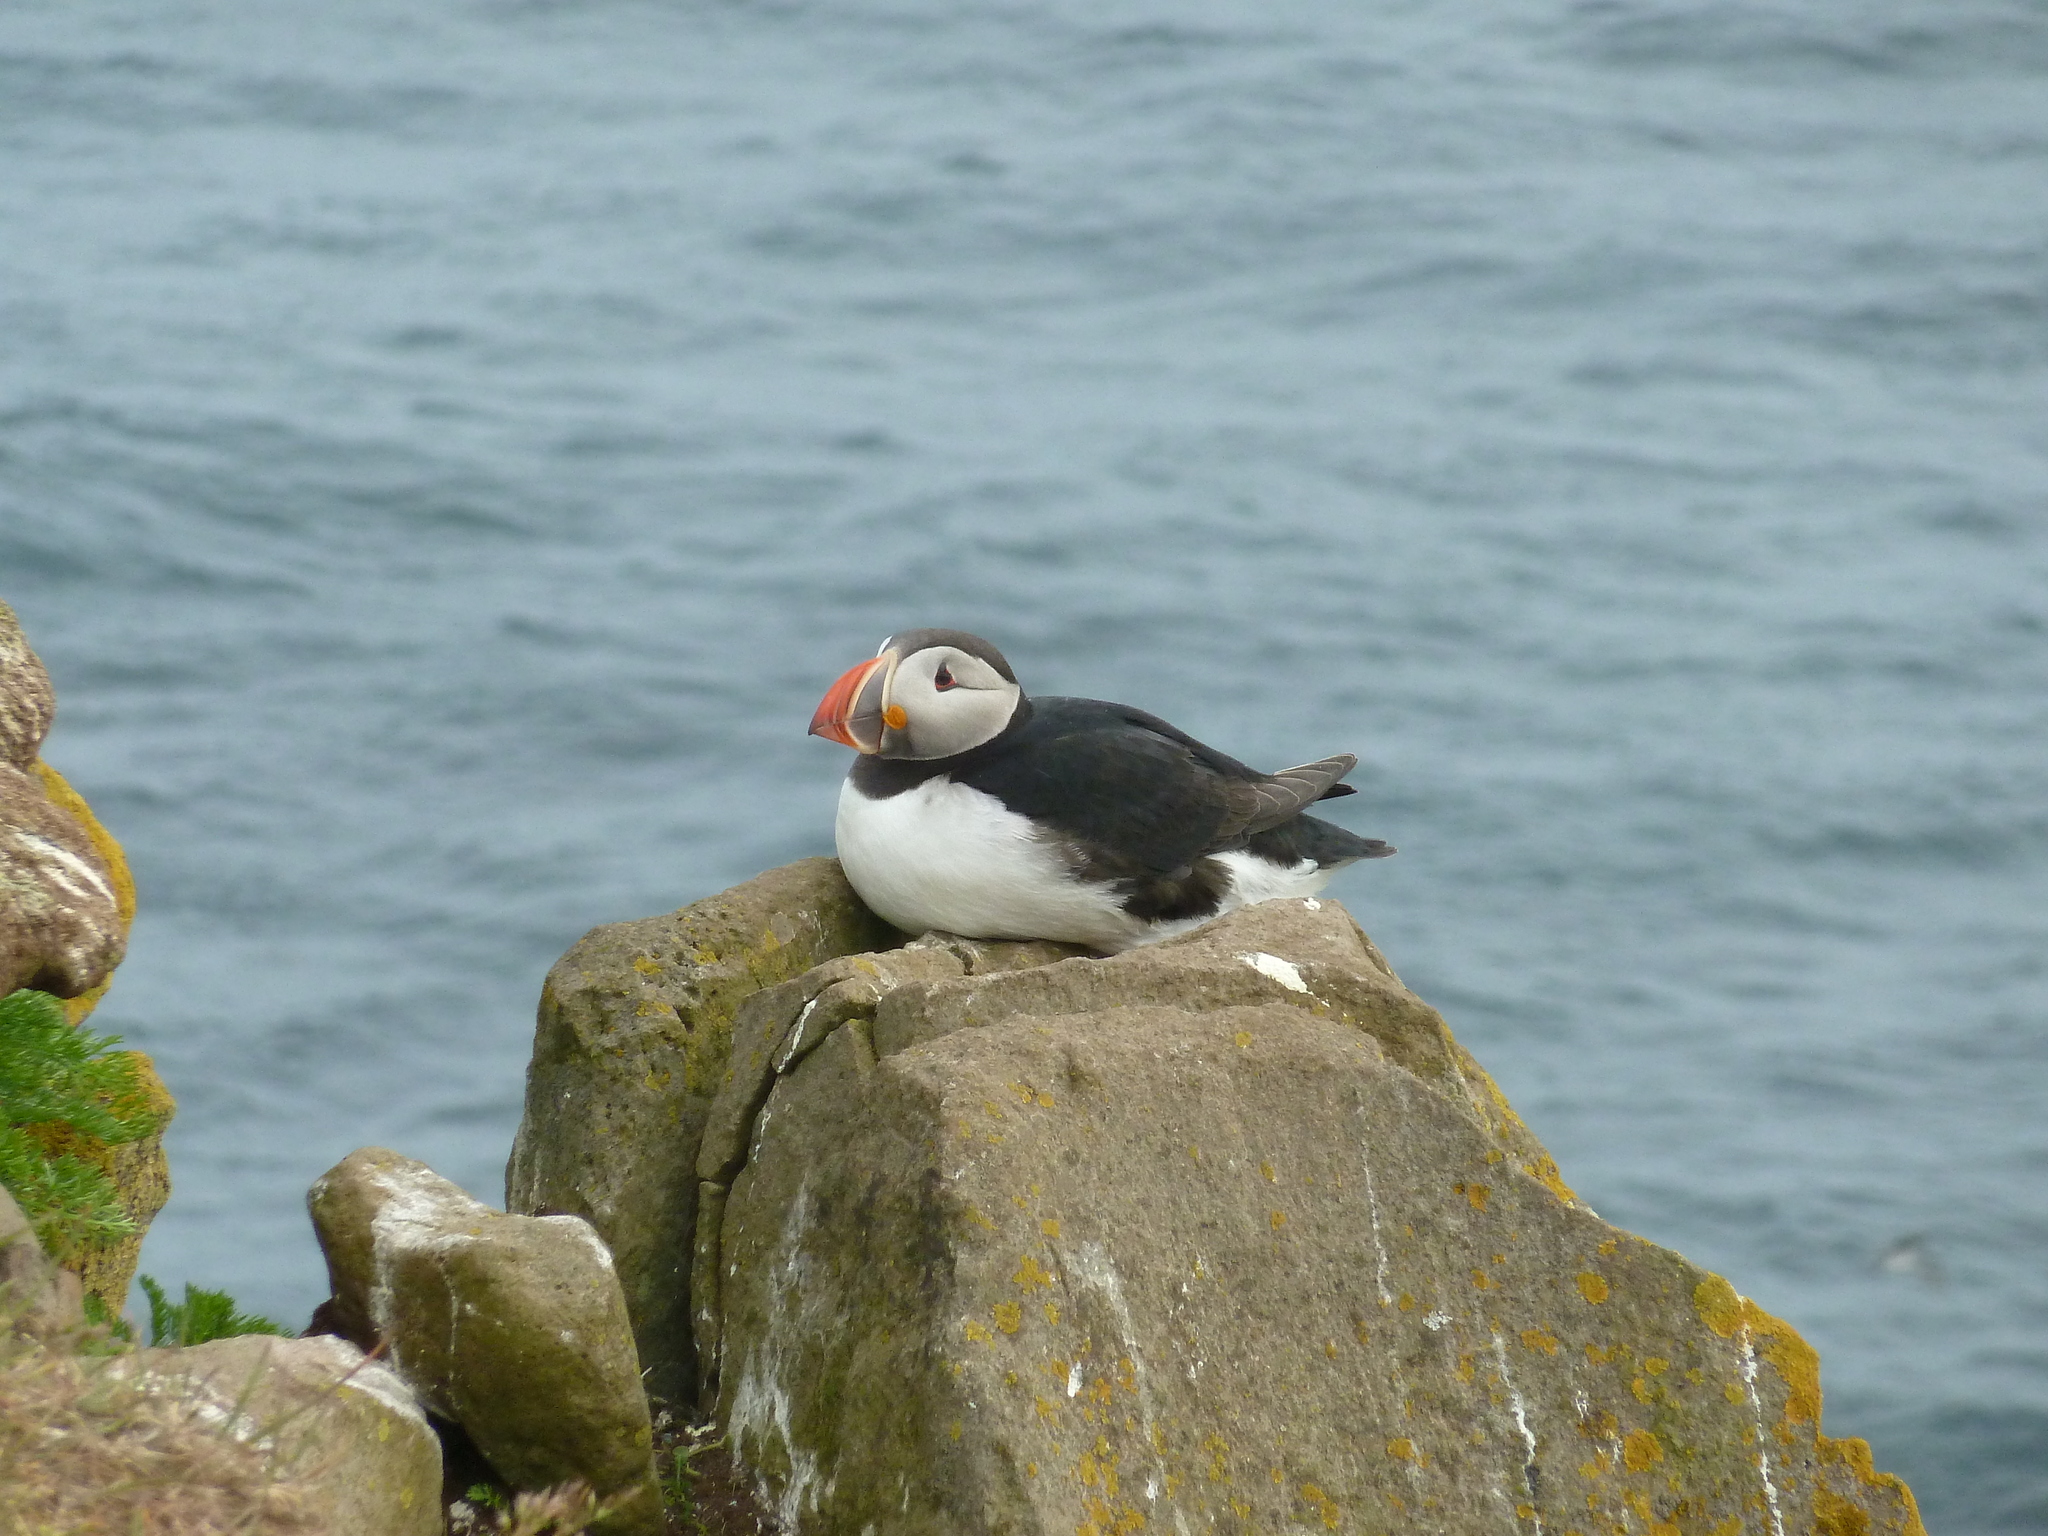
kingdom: Animalia
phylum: Chordata
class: Aves
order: Charadriiformes
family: Alcidae
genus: Fratercula
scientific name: Fratercula arctica
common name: Atlantic puffin
